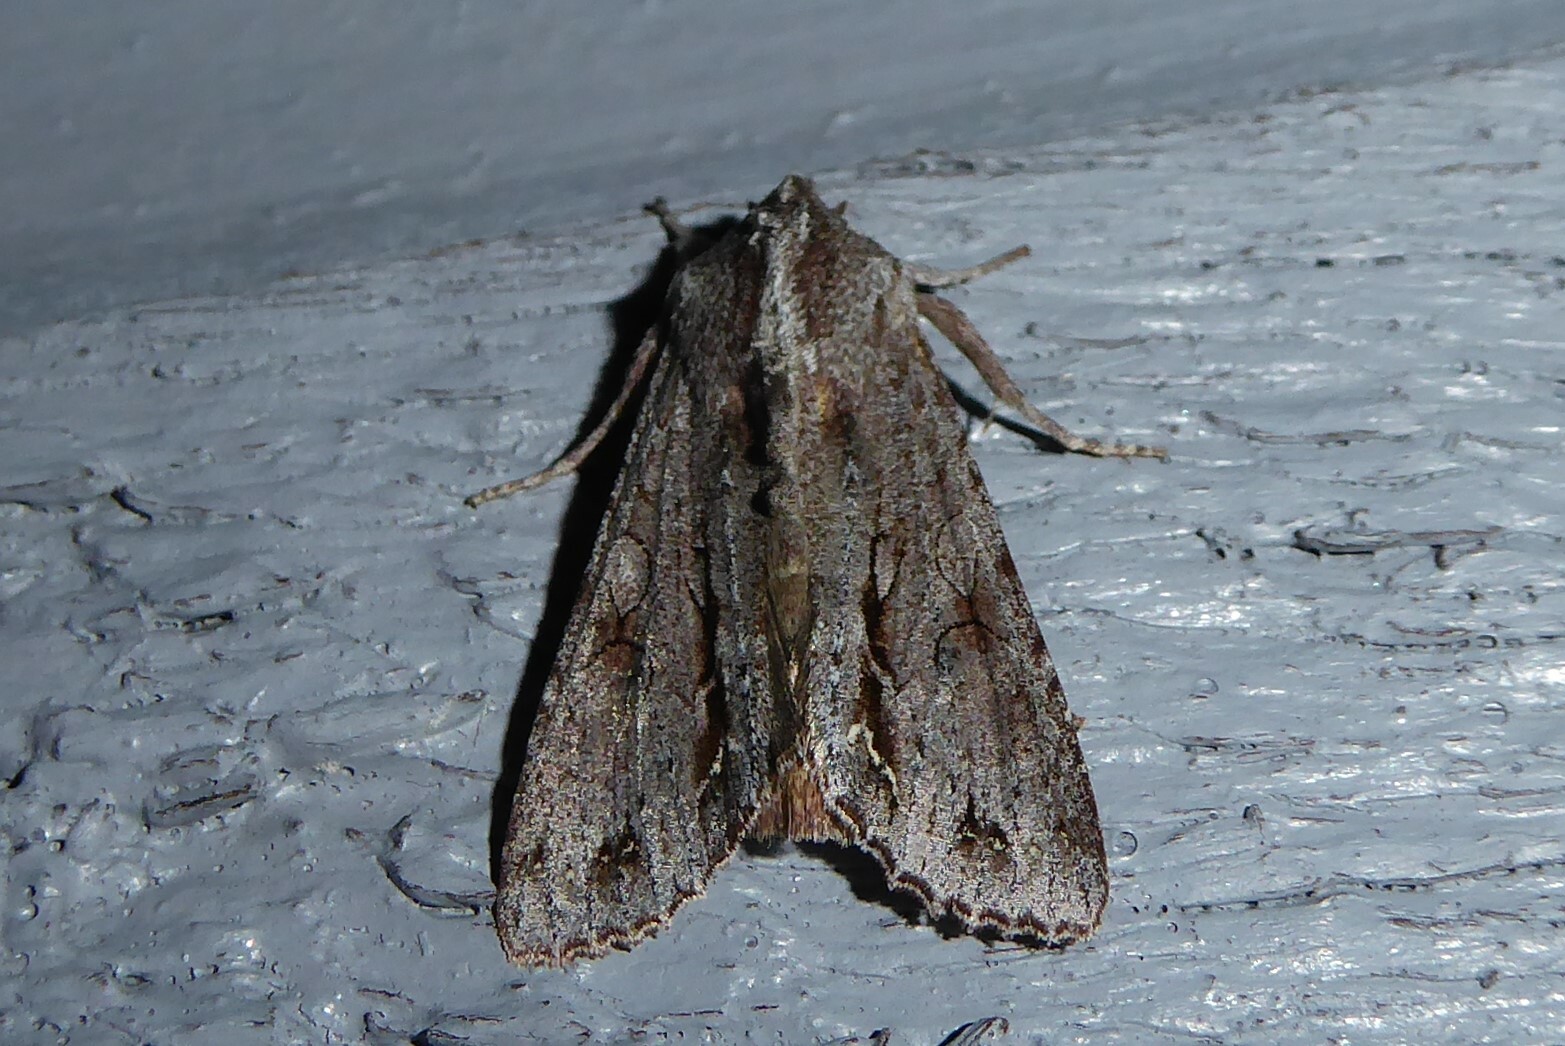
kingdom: Animalia
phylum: Arthropoda
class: Insecta
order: Lepidoptera
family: Noctuidae
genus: Ichneutica
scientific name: Ichneutica
